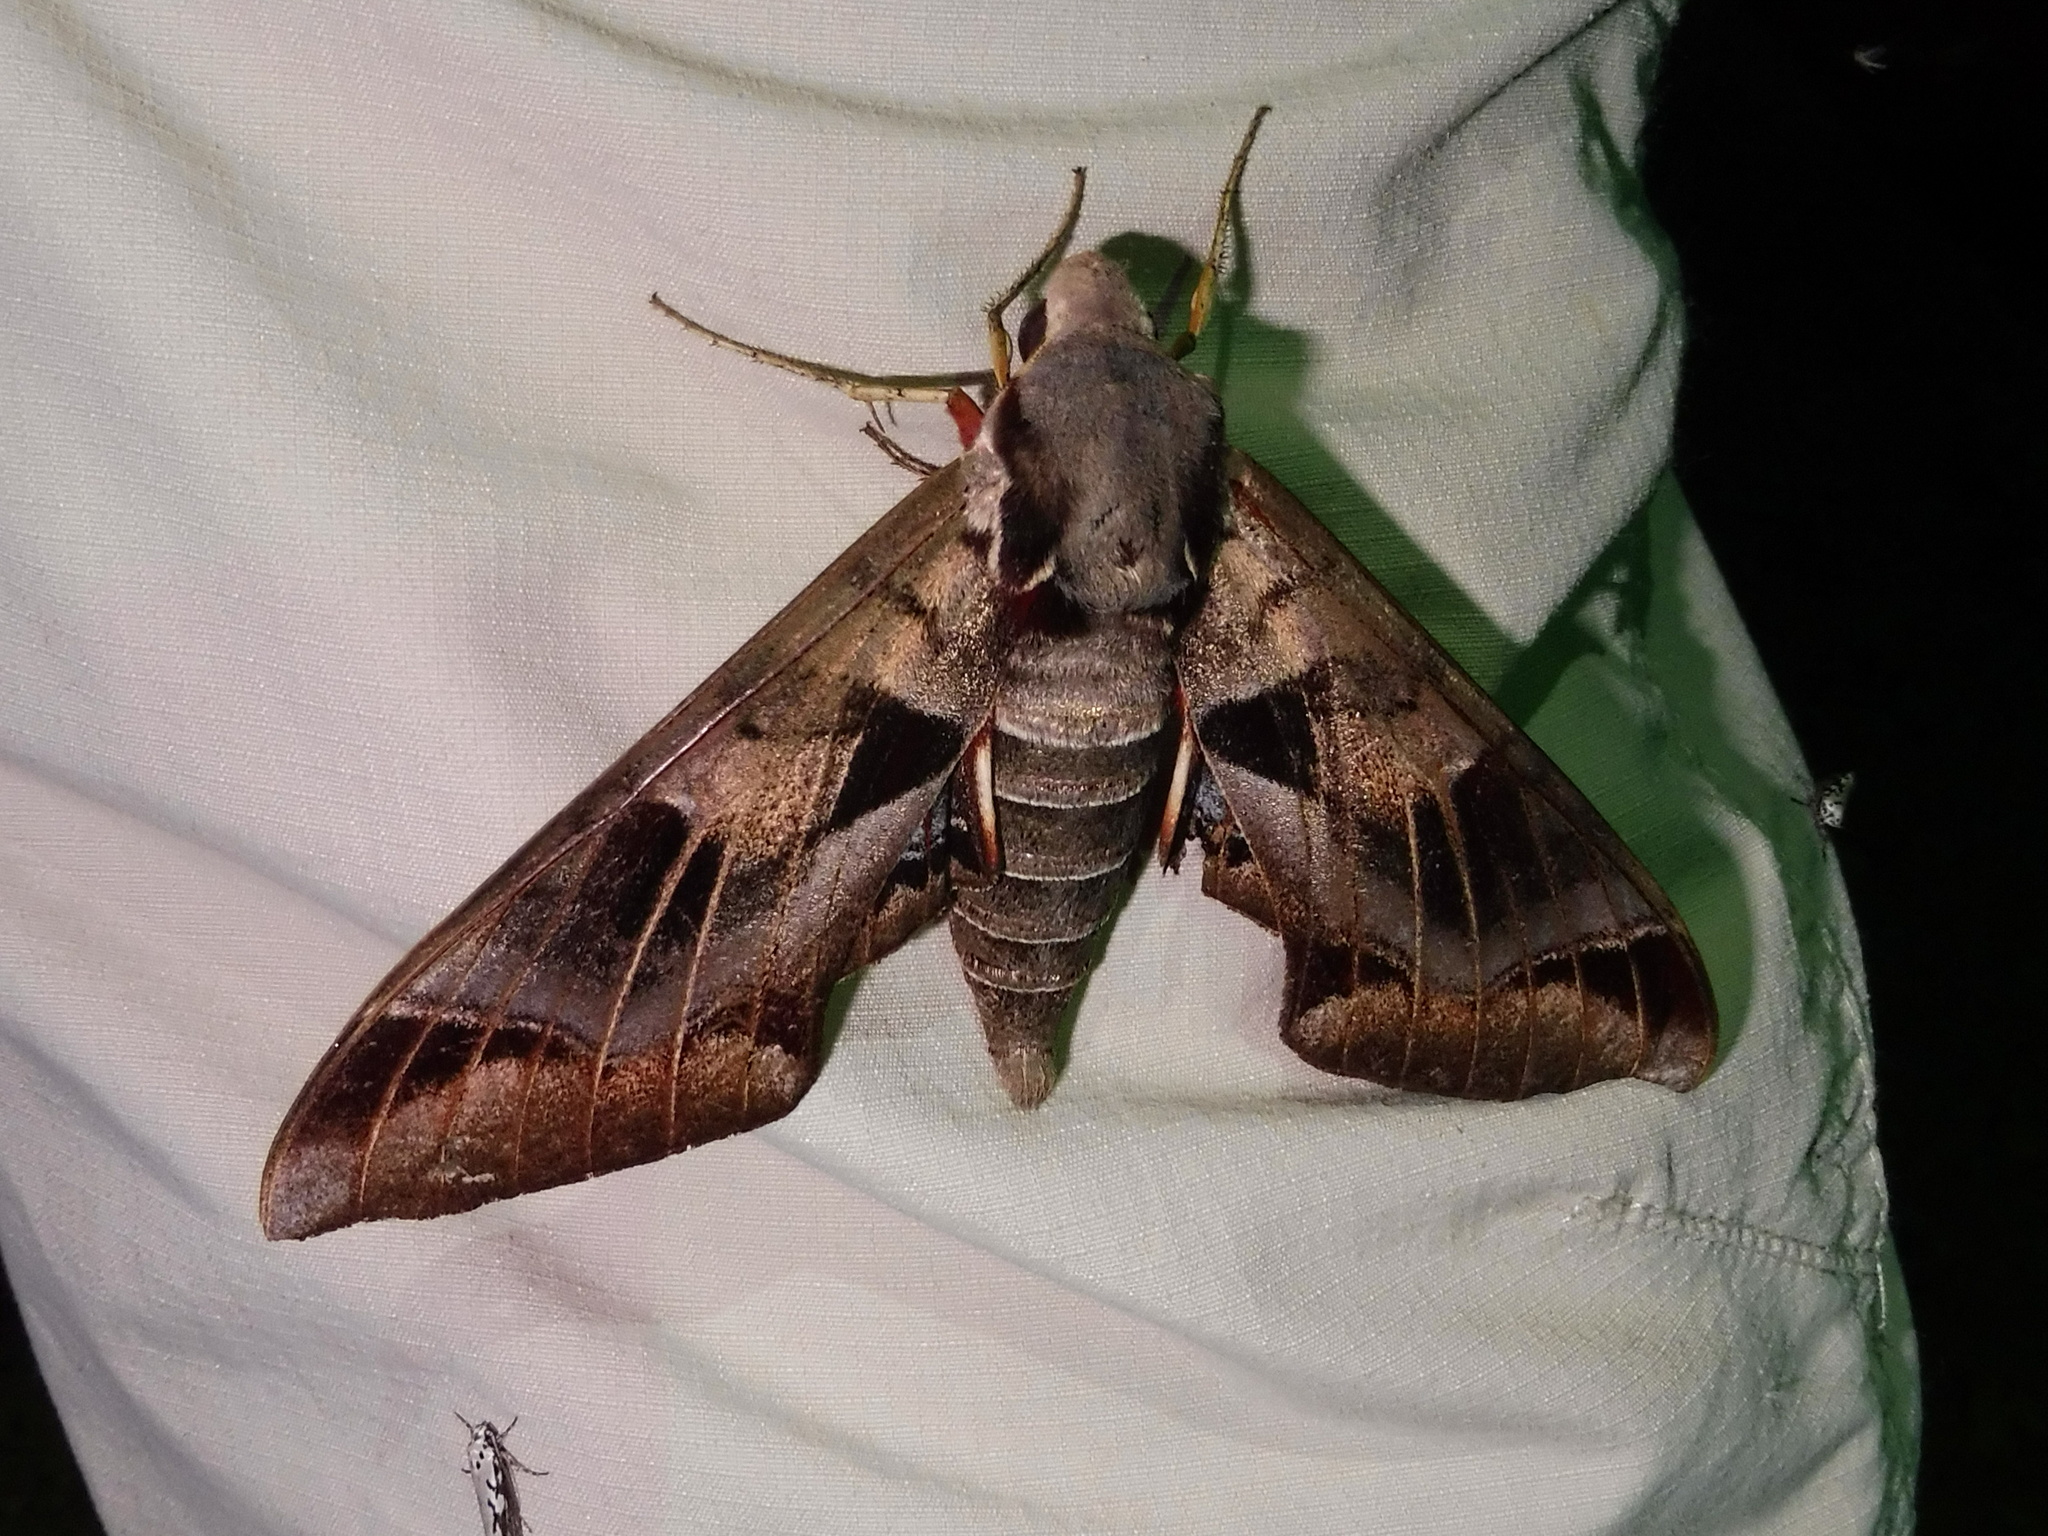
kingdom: Animalia
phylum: Arthropoda
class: Insecta
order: Lepidoptera
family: Sphingidae
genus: Eumorpha
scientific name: Eumorpha typhon
